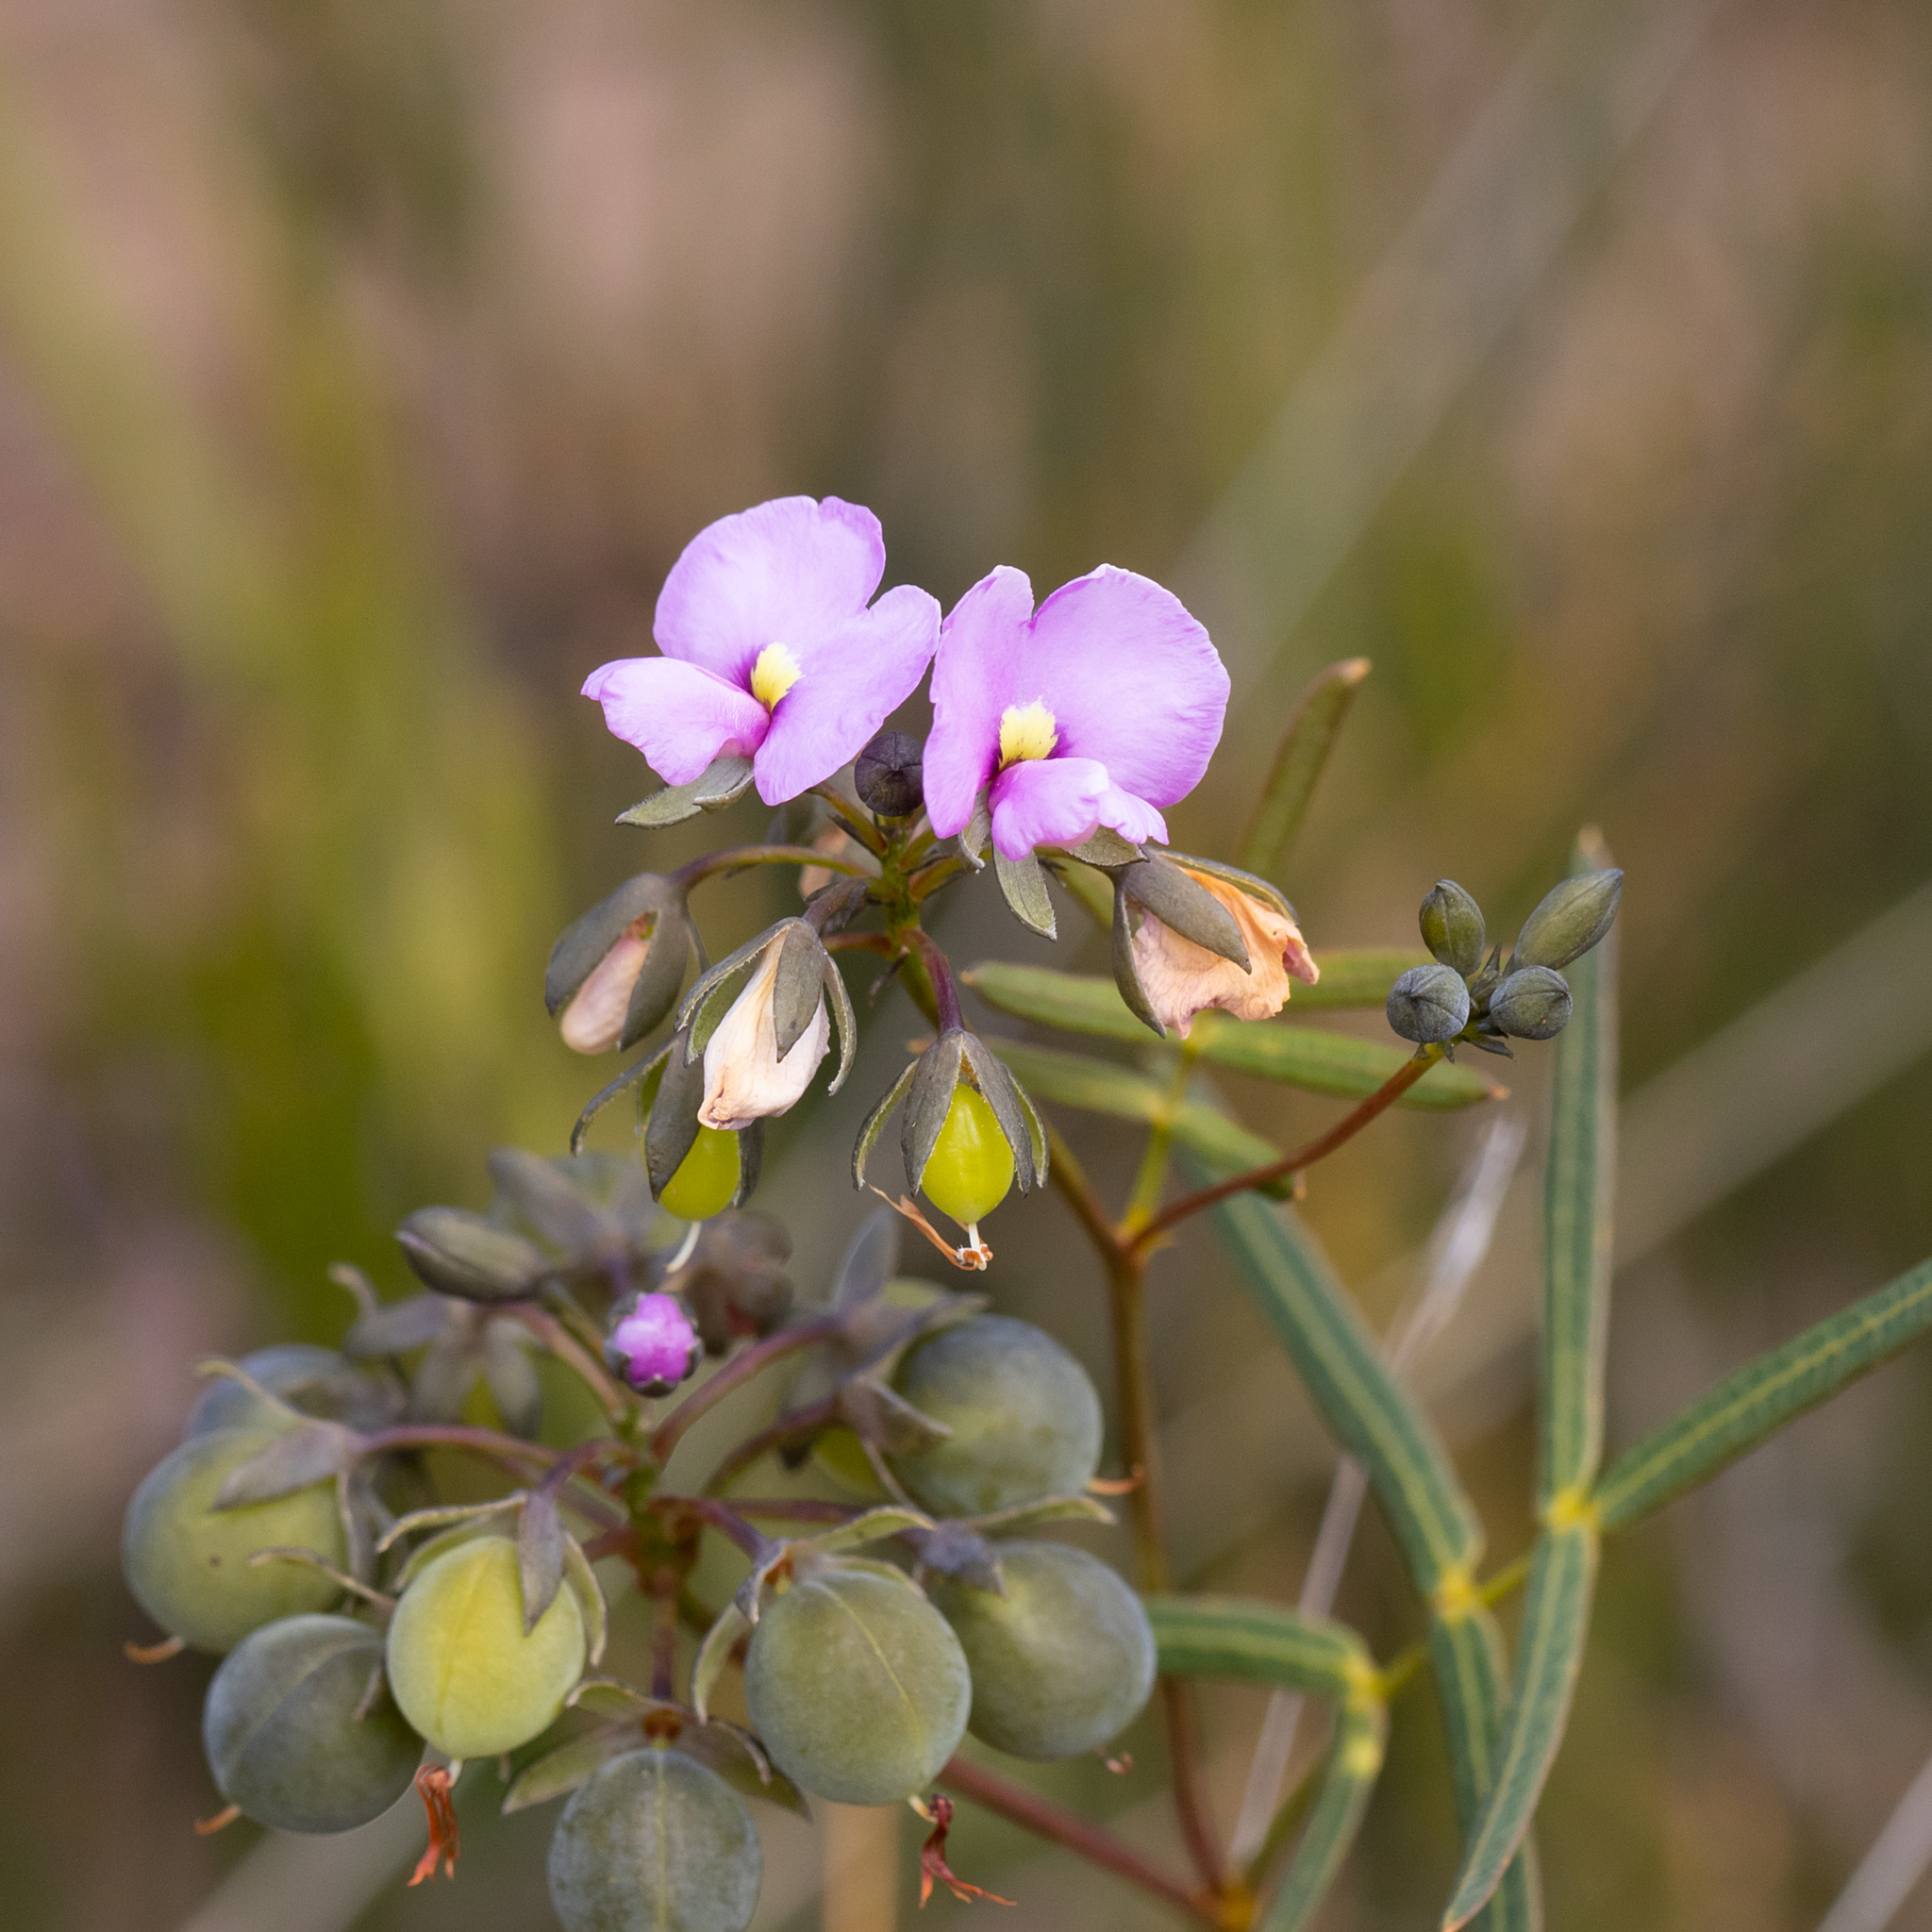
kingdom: Plantae
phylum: Tracheophyta
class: Magnoliopsida
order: Fabales
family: Fabaceae
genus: Gompholobium
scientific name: Gompholobium knightianum
